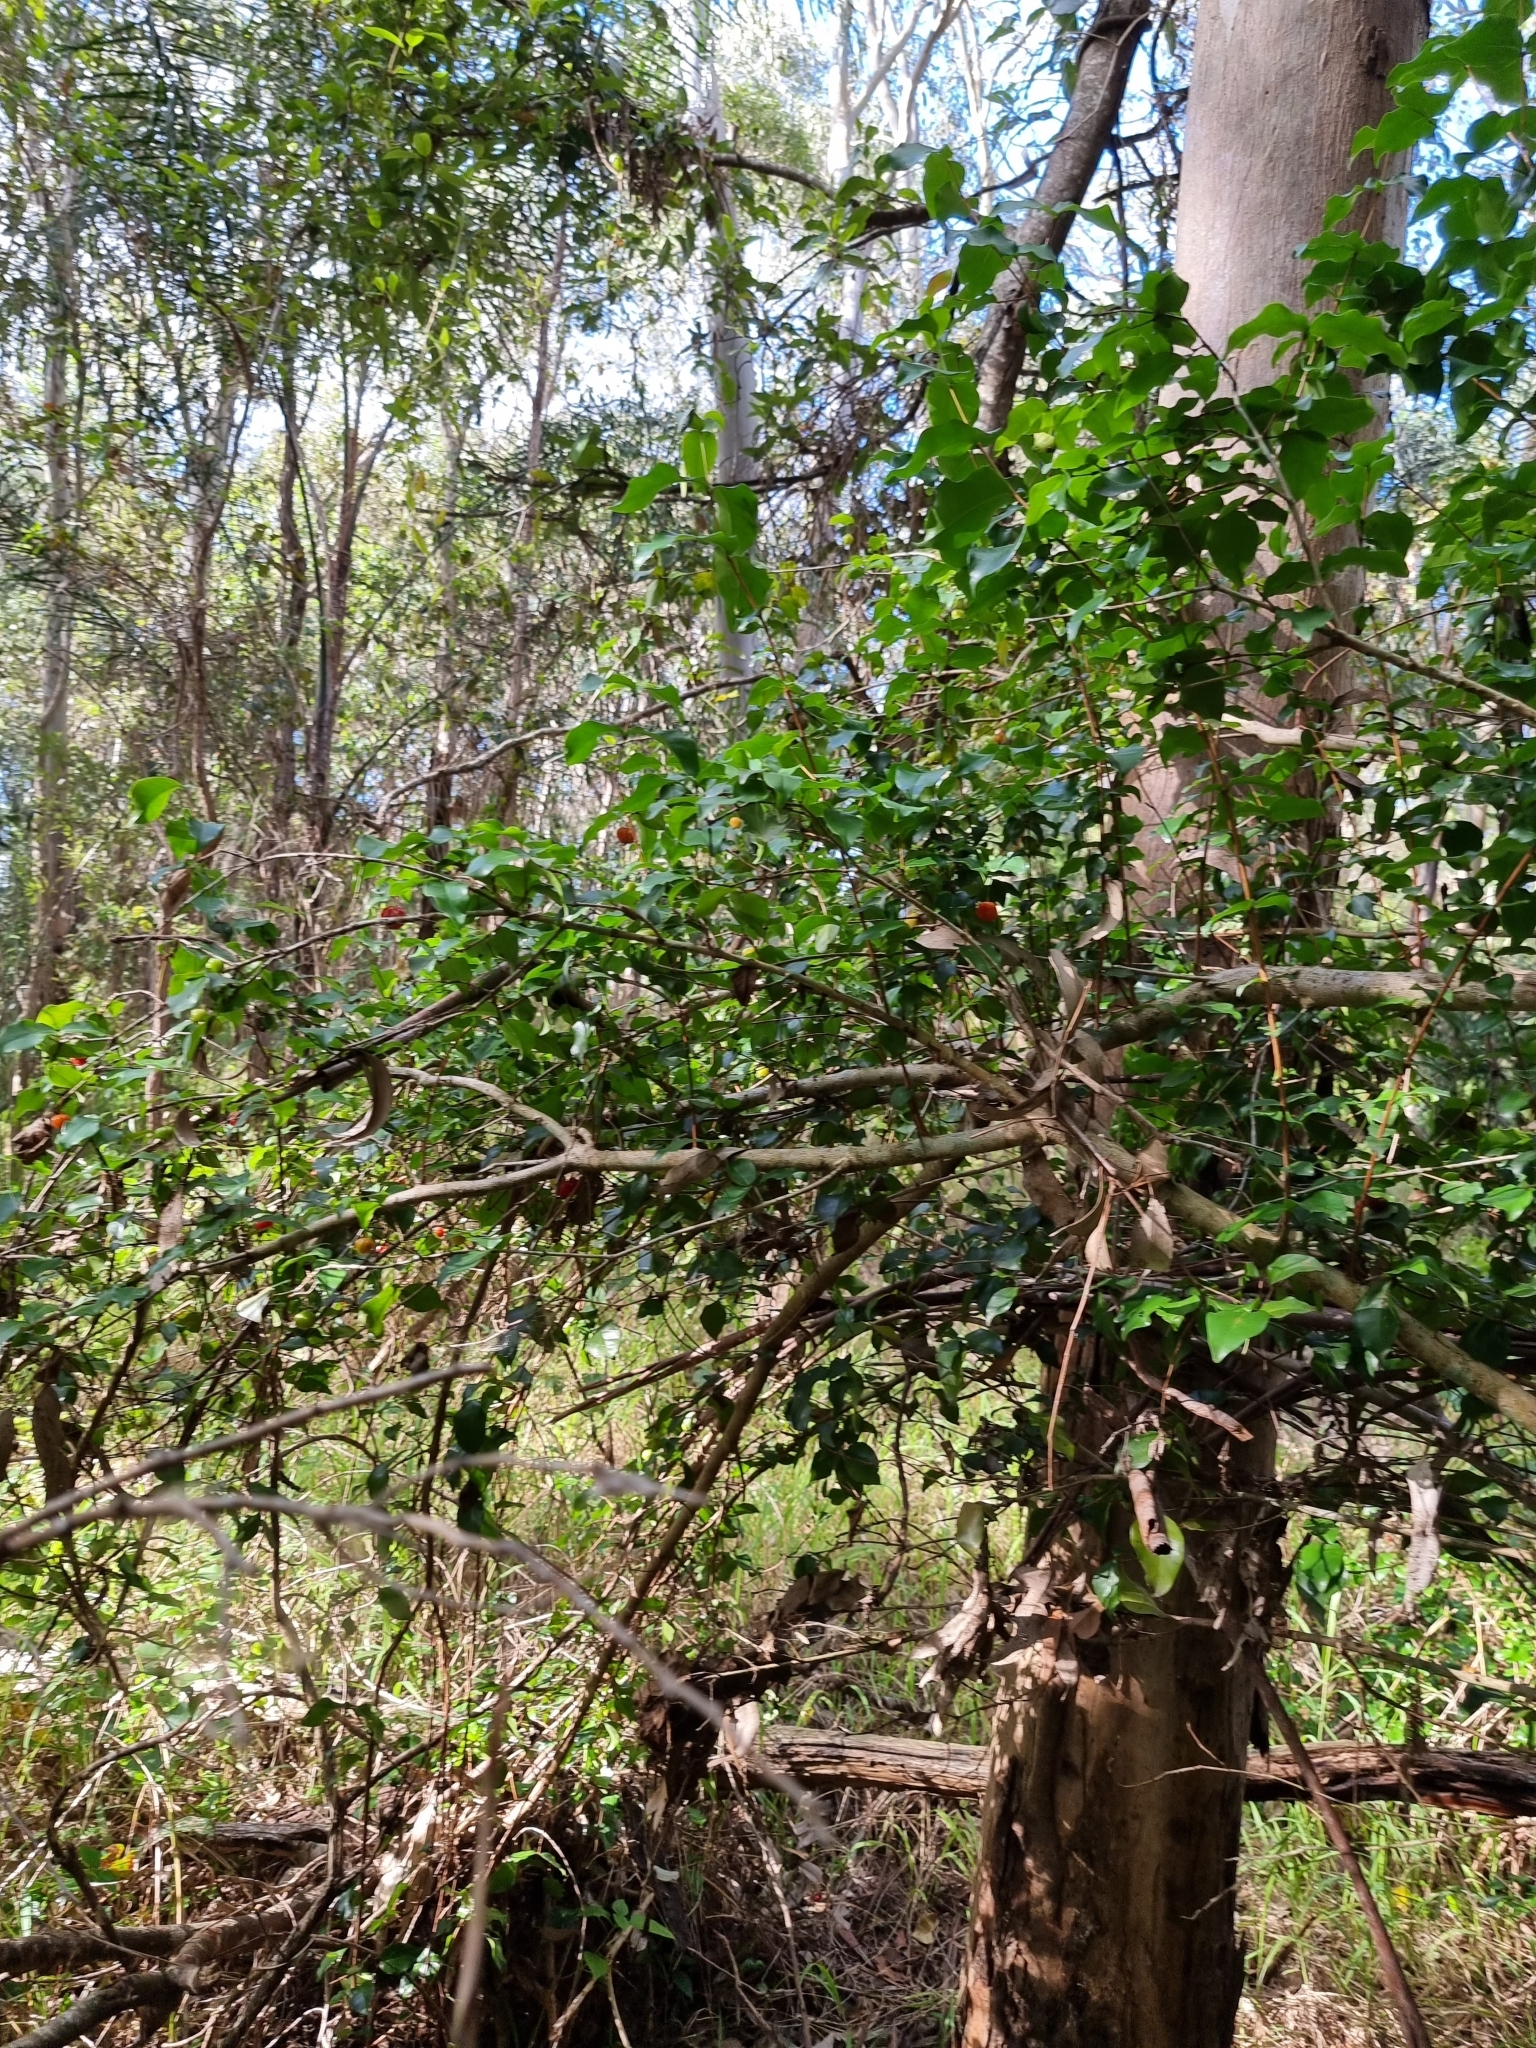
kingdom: Plantae
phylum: Tracheophyta
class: Magnoliopsida
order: Myrtales
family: Myrtaceae
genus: Eugenia
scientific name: Eugenia uniflora
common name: Surinam cherry
